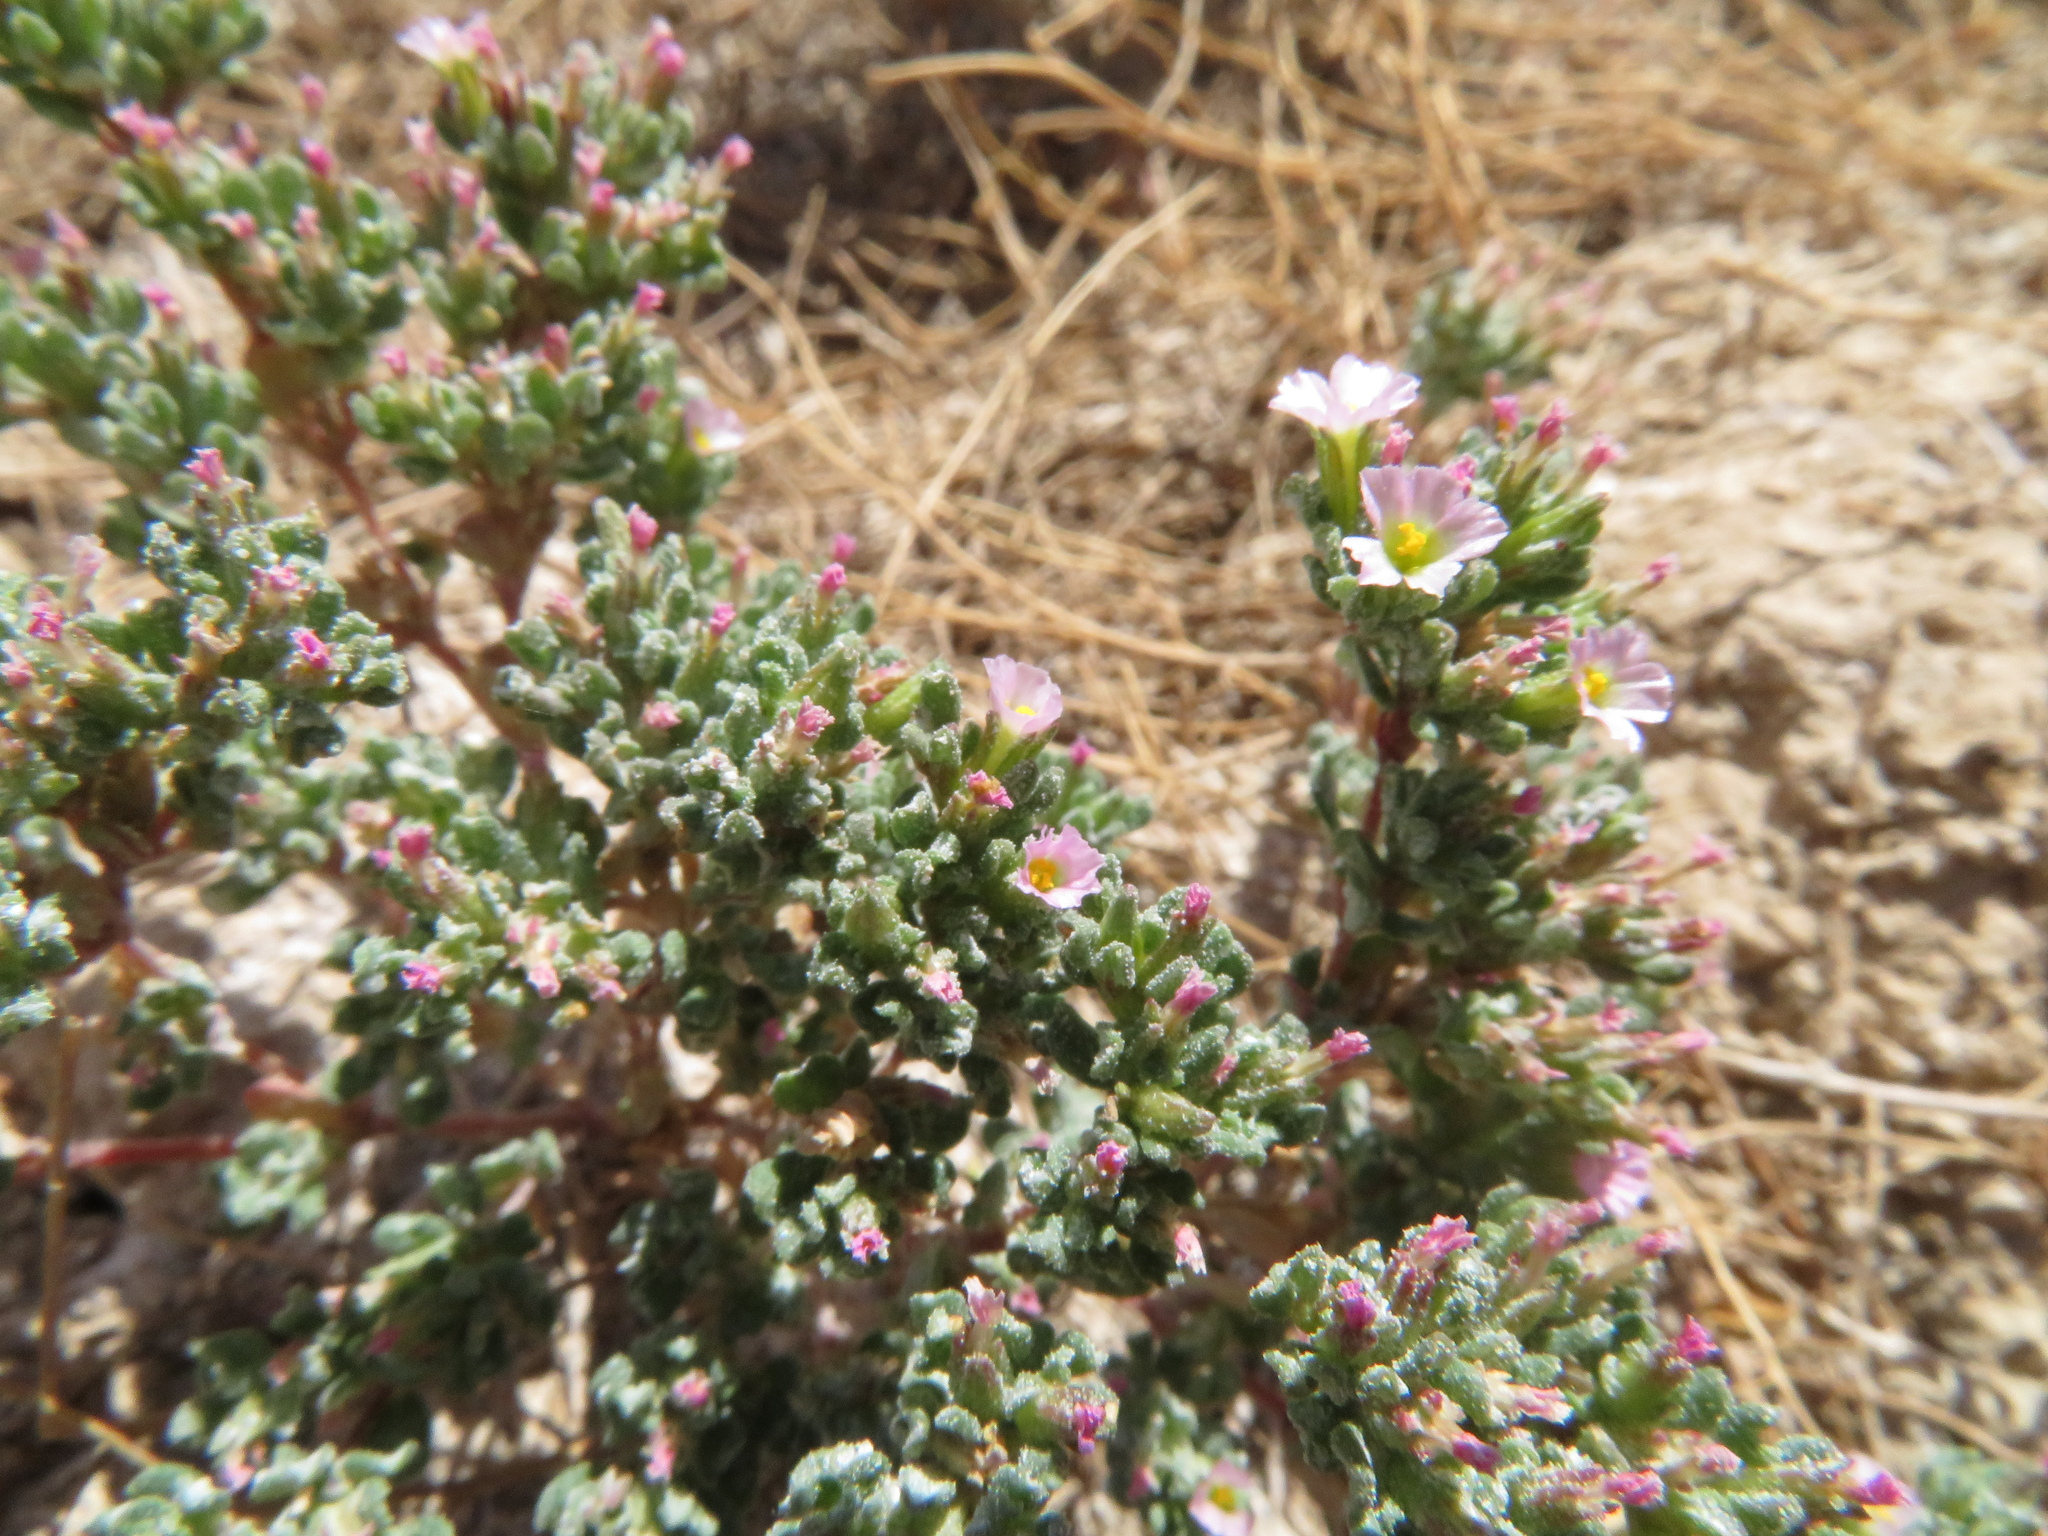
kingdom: Plantae
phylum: Tracheophyta
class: Magnoliopsida
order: Caryophyllales
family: Frankeniaceae
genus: Frankenia
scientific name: Frankenia pulverulenta
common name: European seaheath
